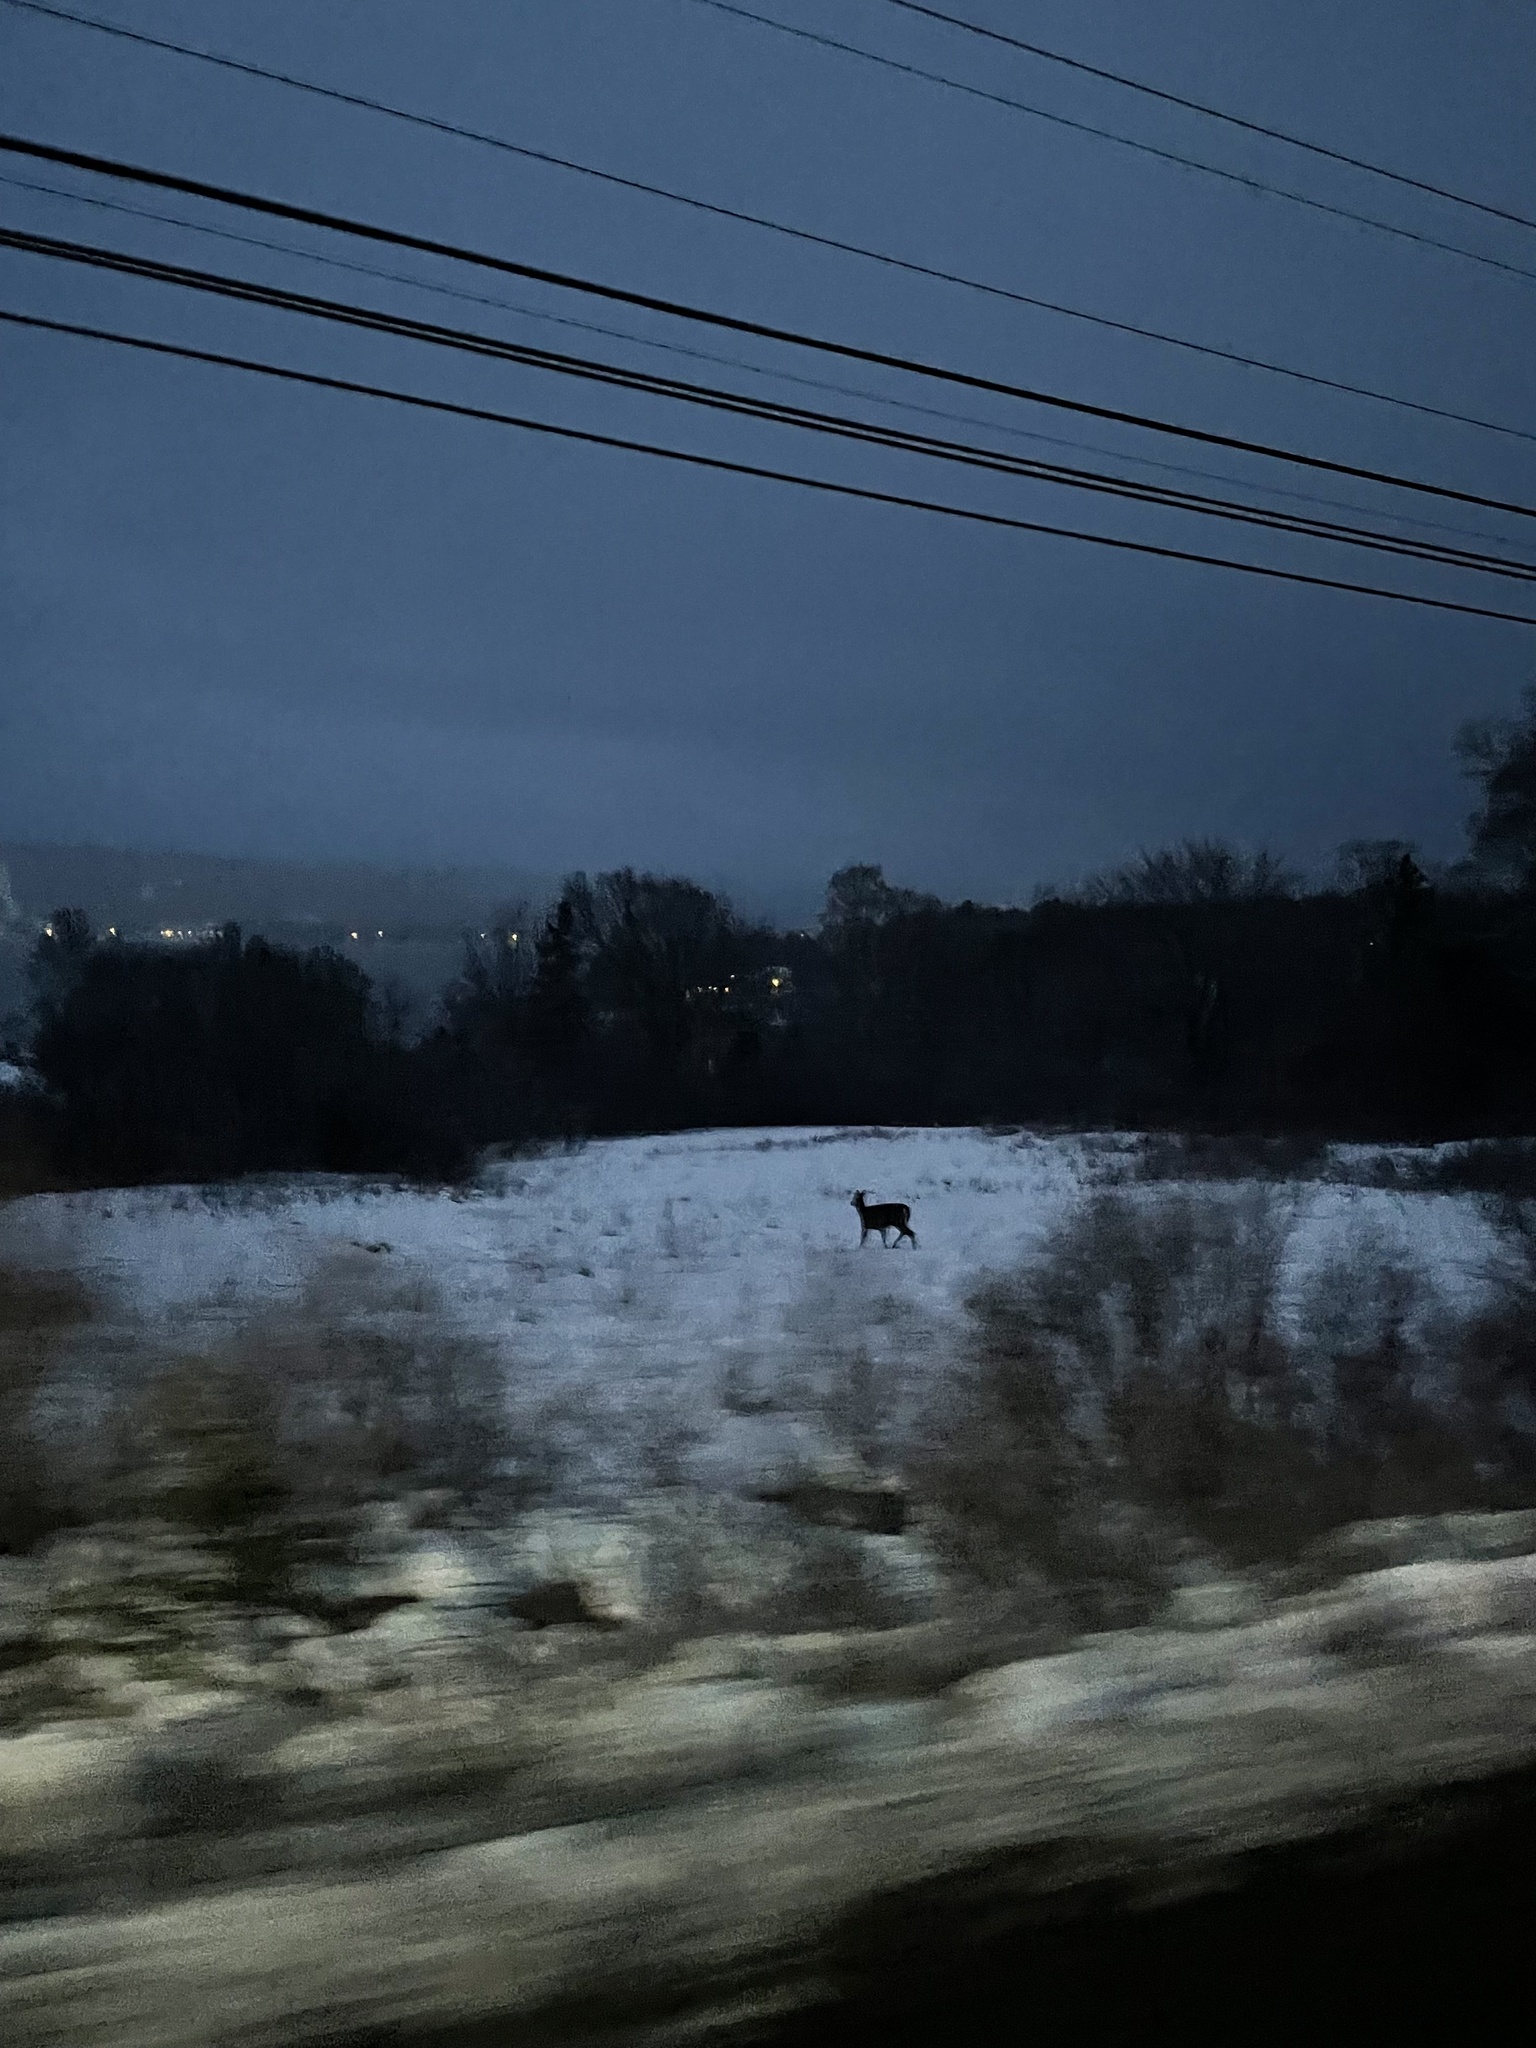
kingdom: Animalia
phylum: Chordata
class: Mammalia
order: Artiodactyla
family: Cervidae
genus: Odocoileus
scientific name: Odocoileus virginianus
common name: White-tailed deer
